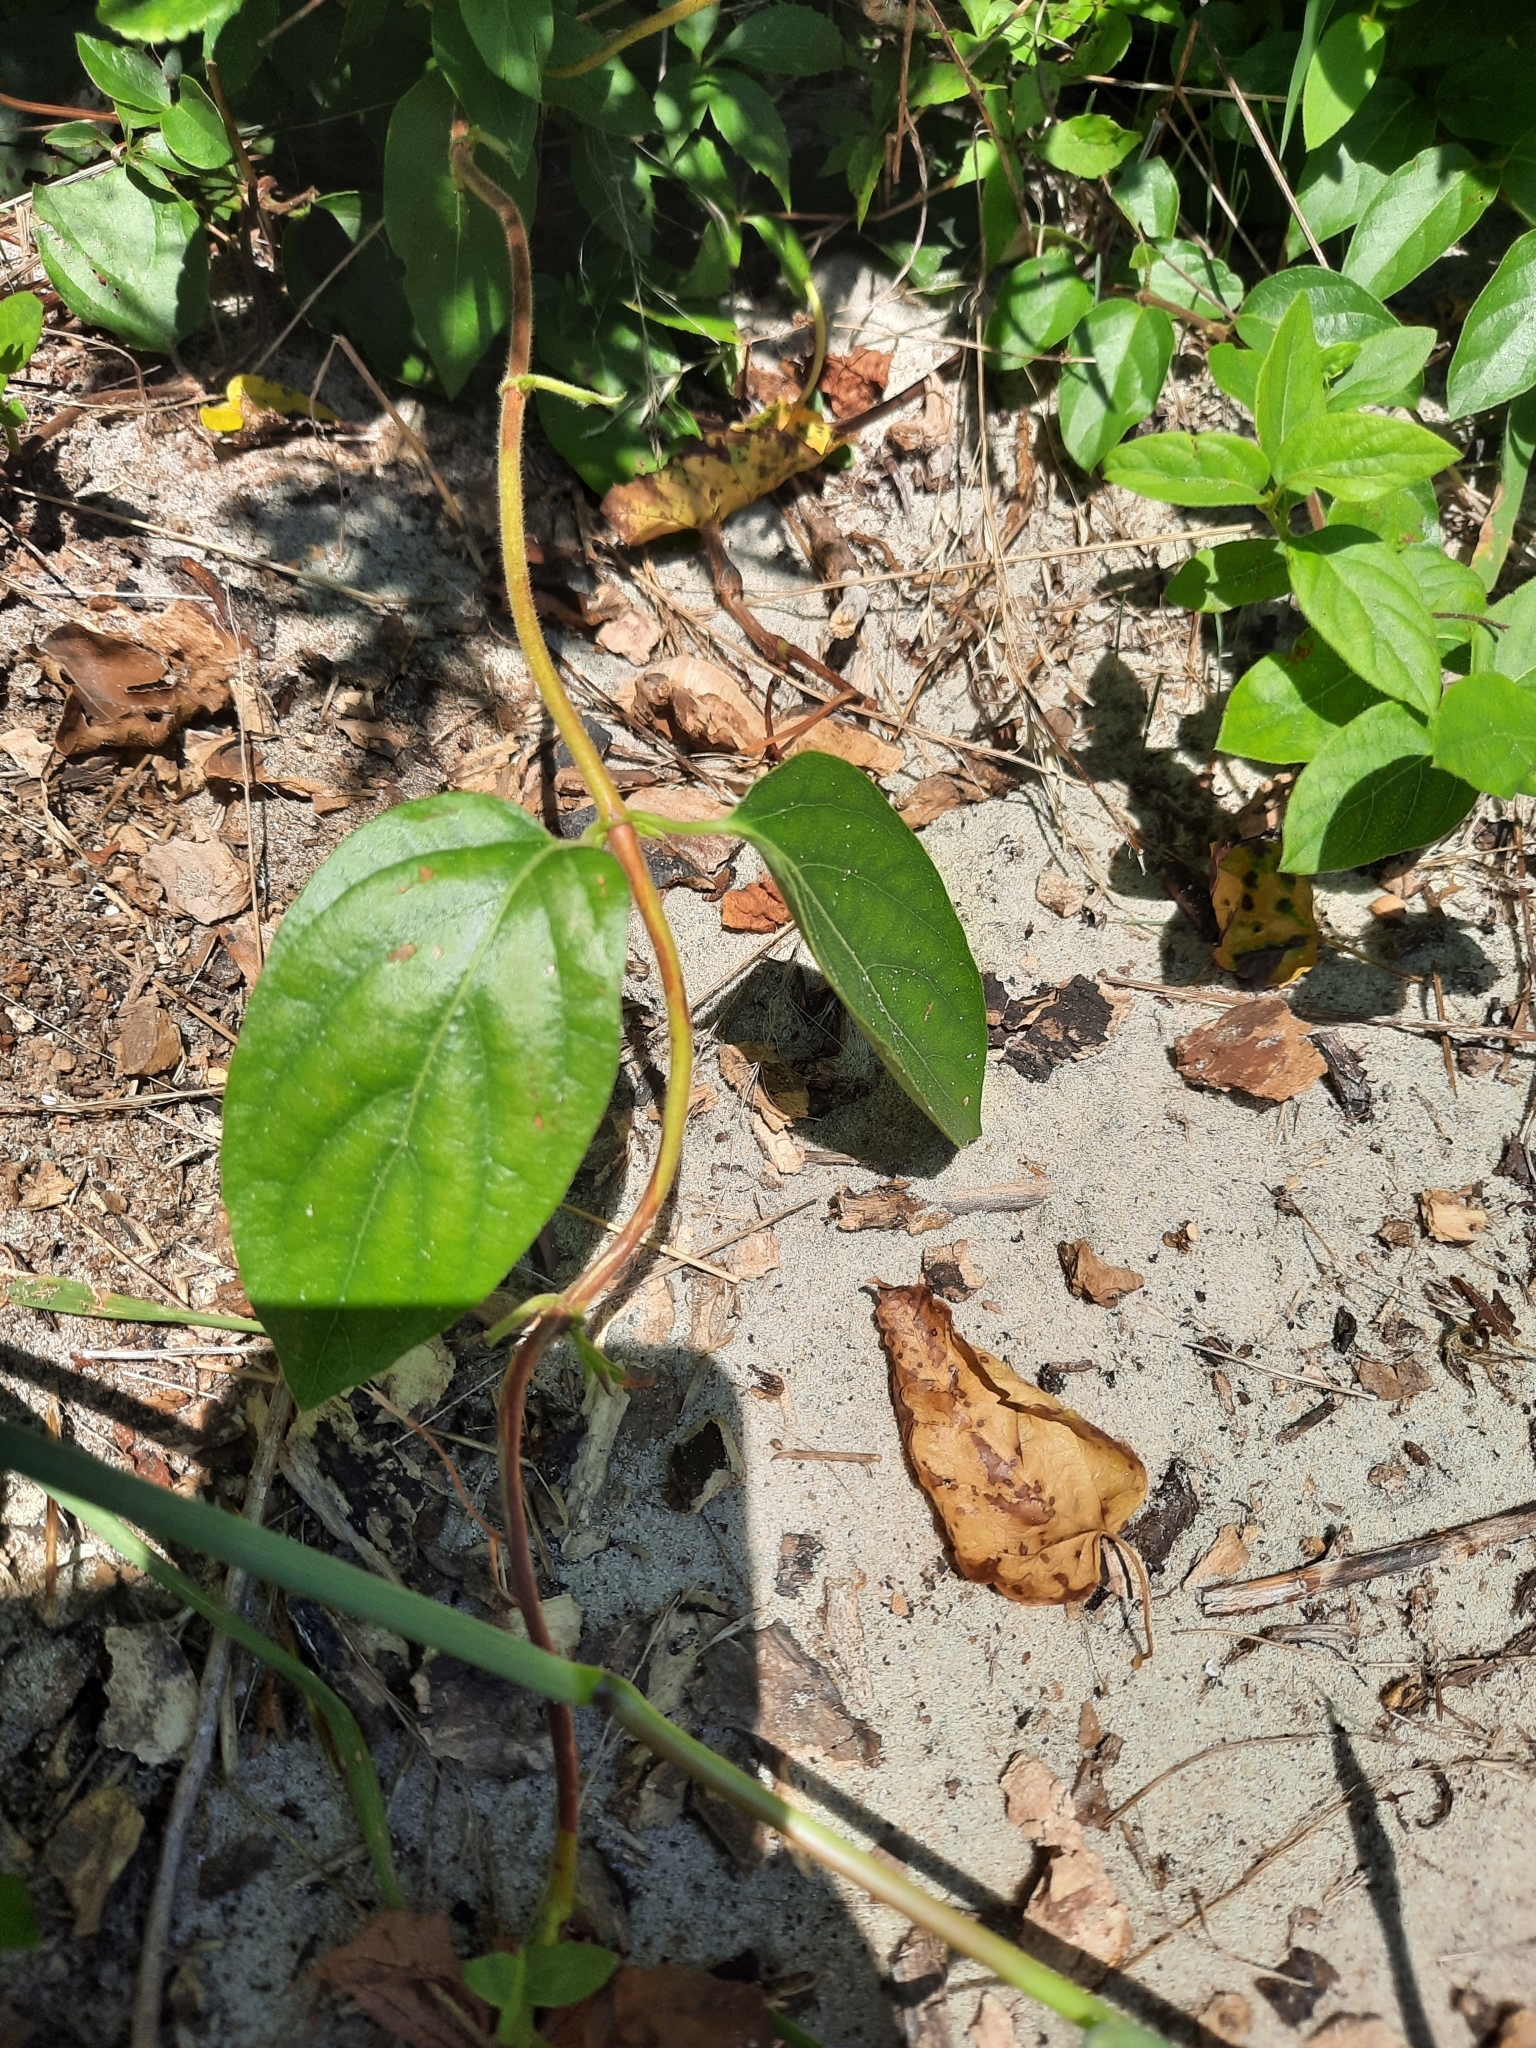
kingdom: Plantae
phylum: Tracheophyta
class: Magnoliopsida
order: Dipsacales
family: Caprifoliaceae
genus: Lonicera
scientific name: Lonicera japonica
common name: Japanese honeysuckle
